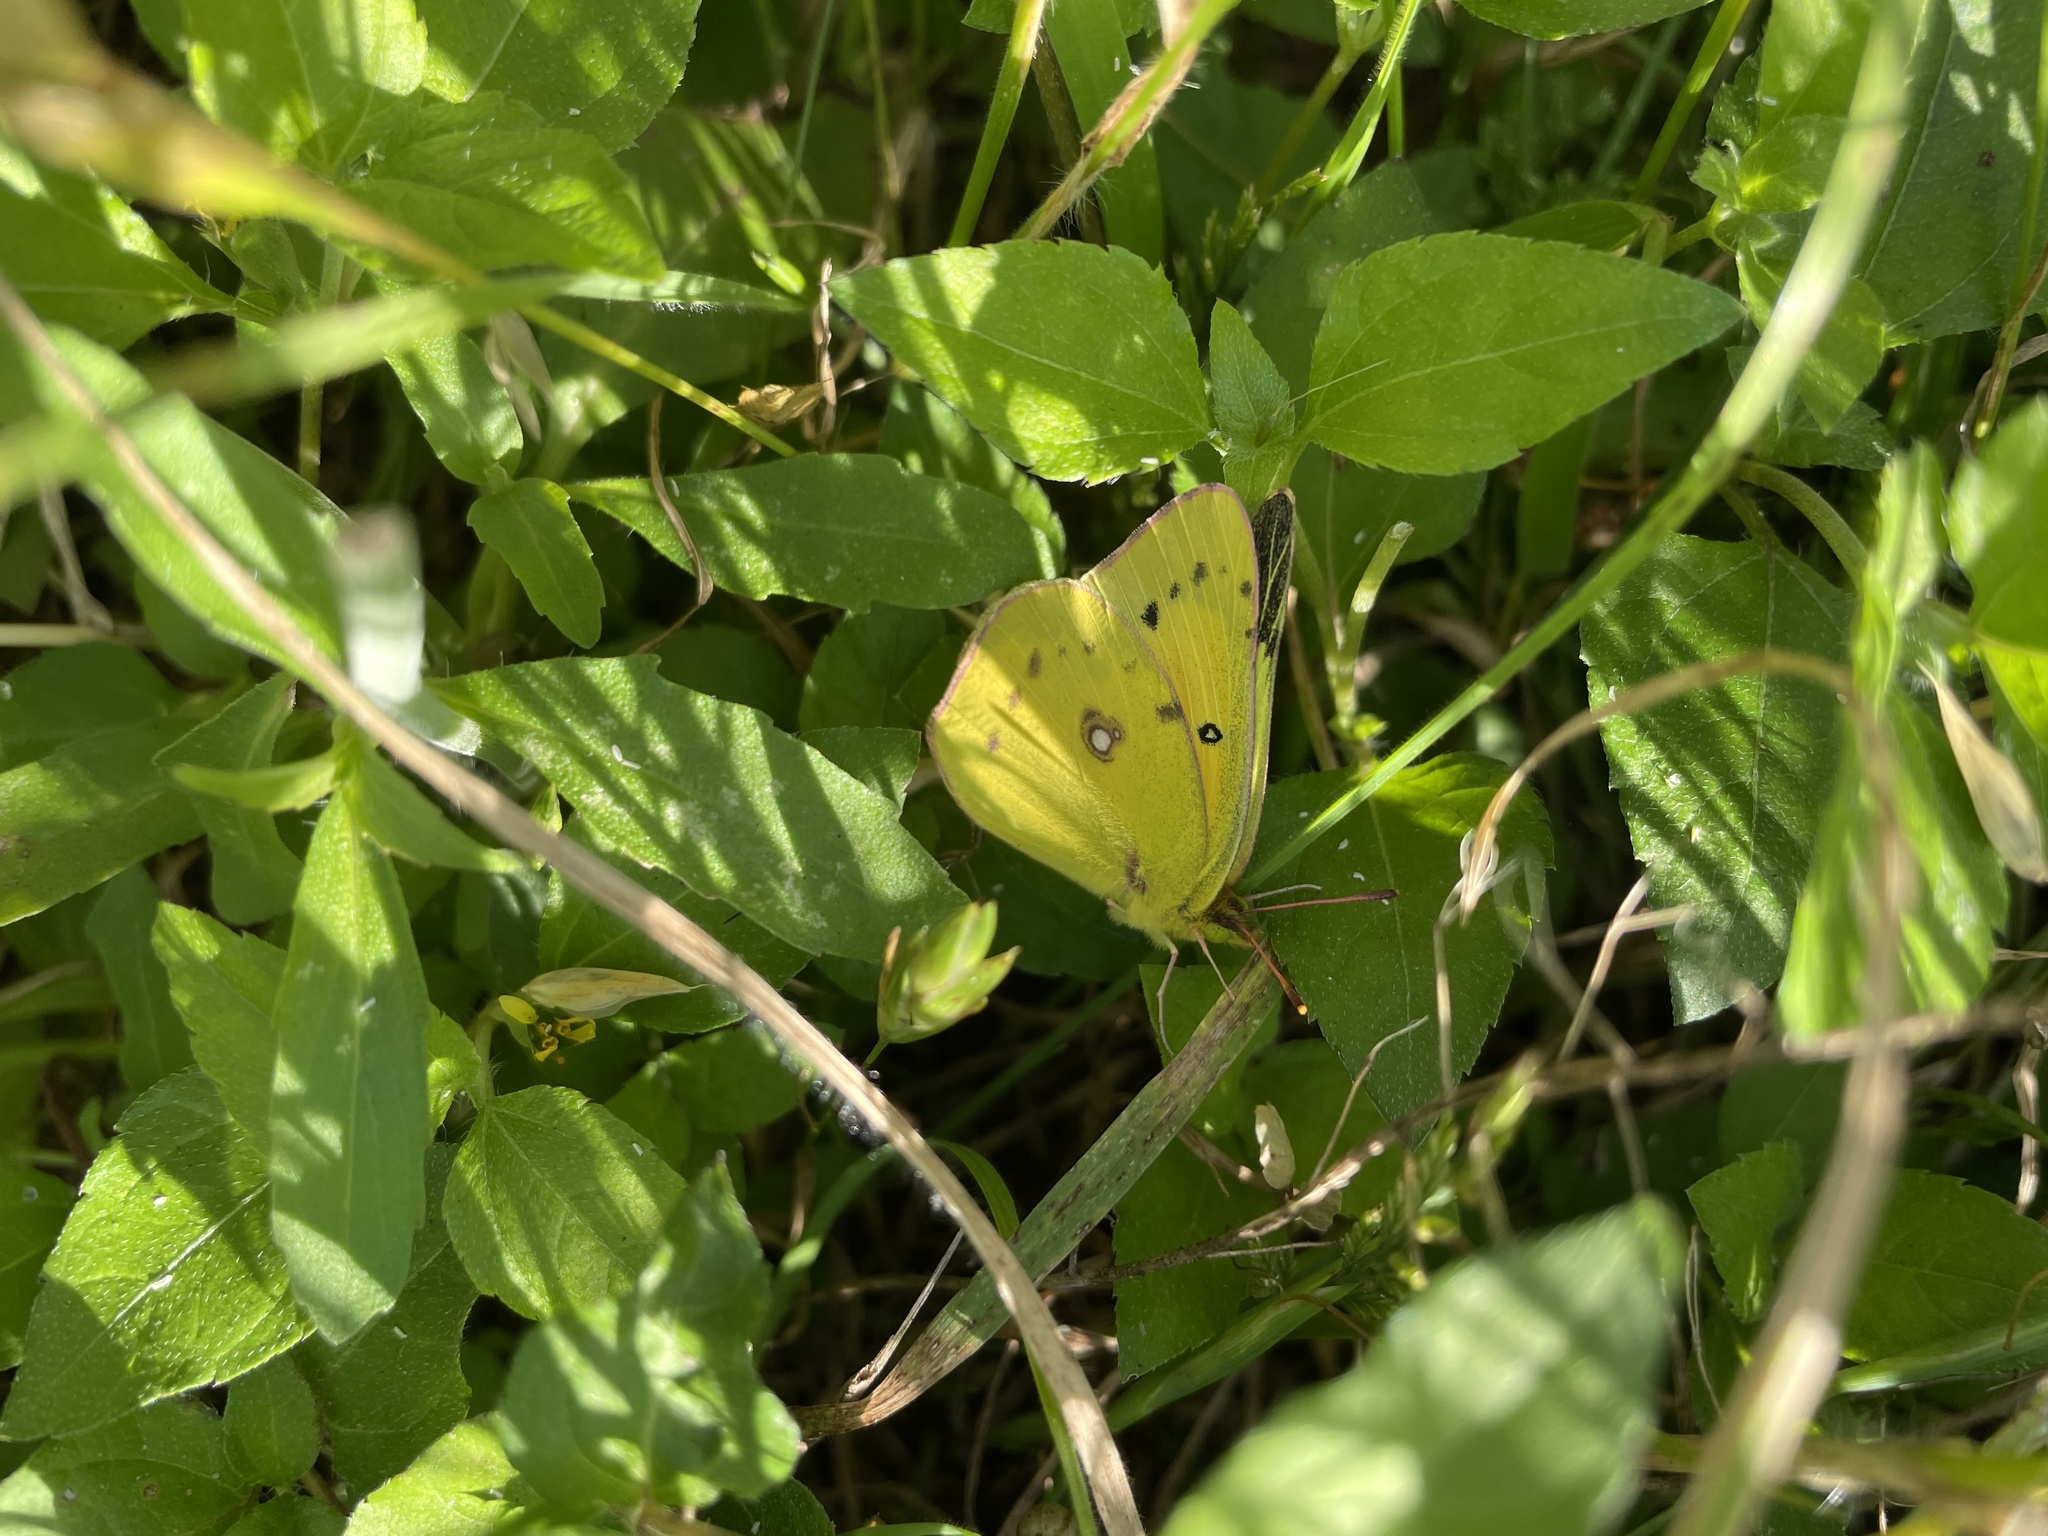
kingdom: Animalia
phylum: Arthropoda
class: Insecta
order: Lepidoptera
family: Pieridae
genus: Colias
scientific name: Colias eurytheme
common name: Alfalfa butterfly
